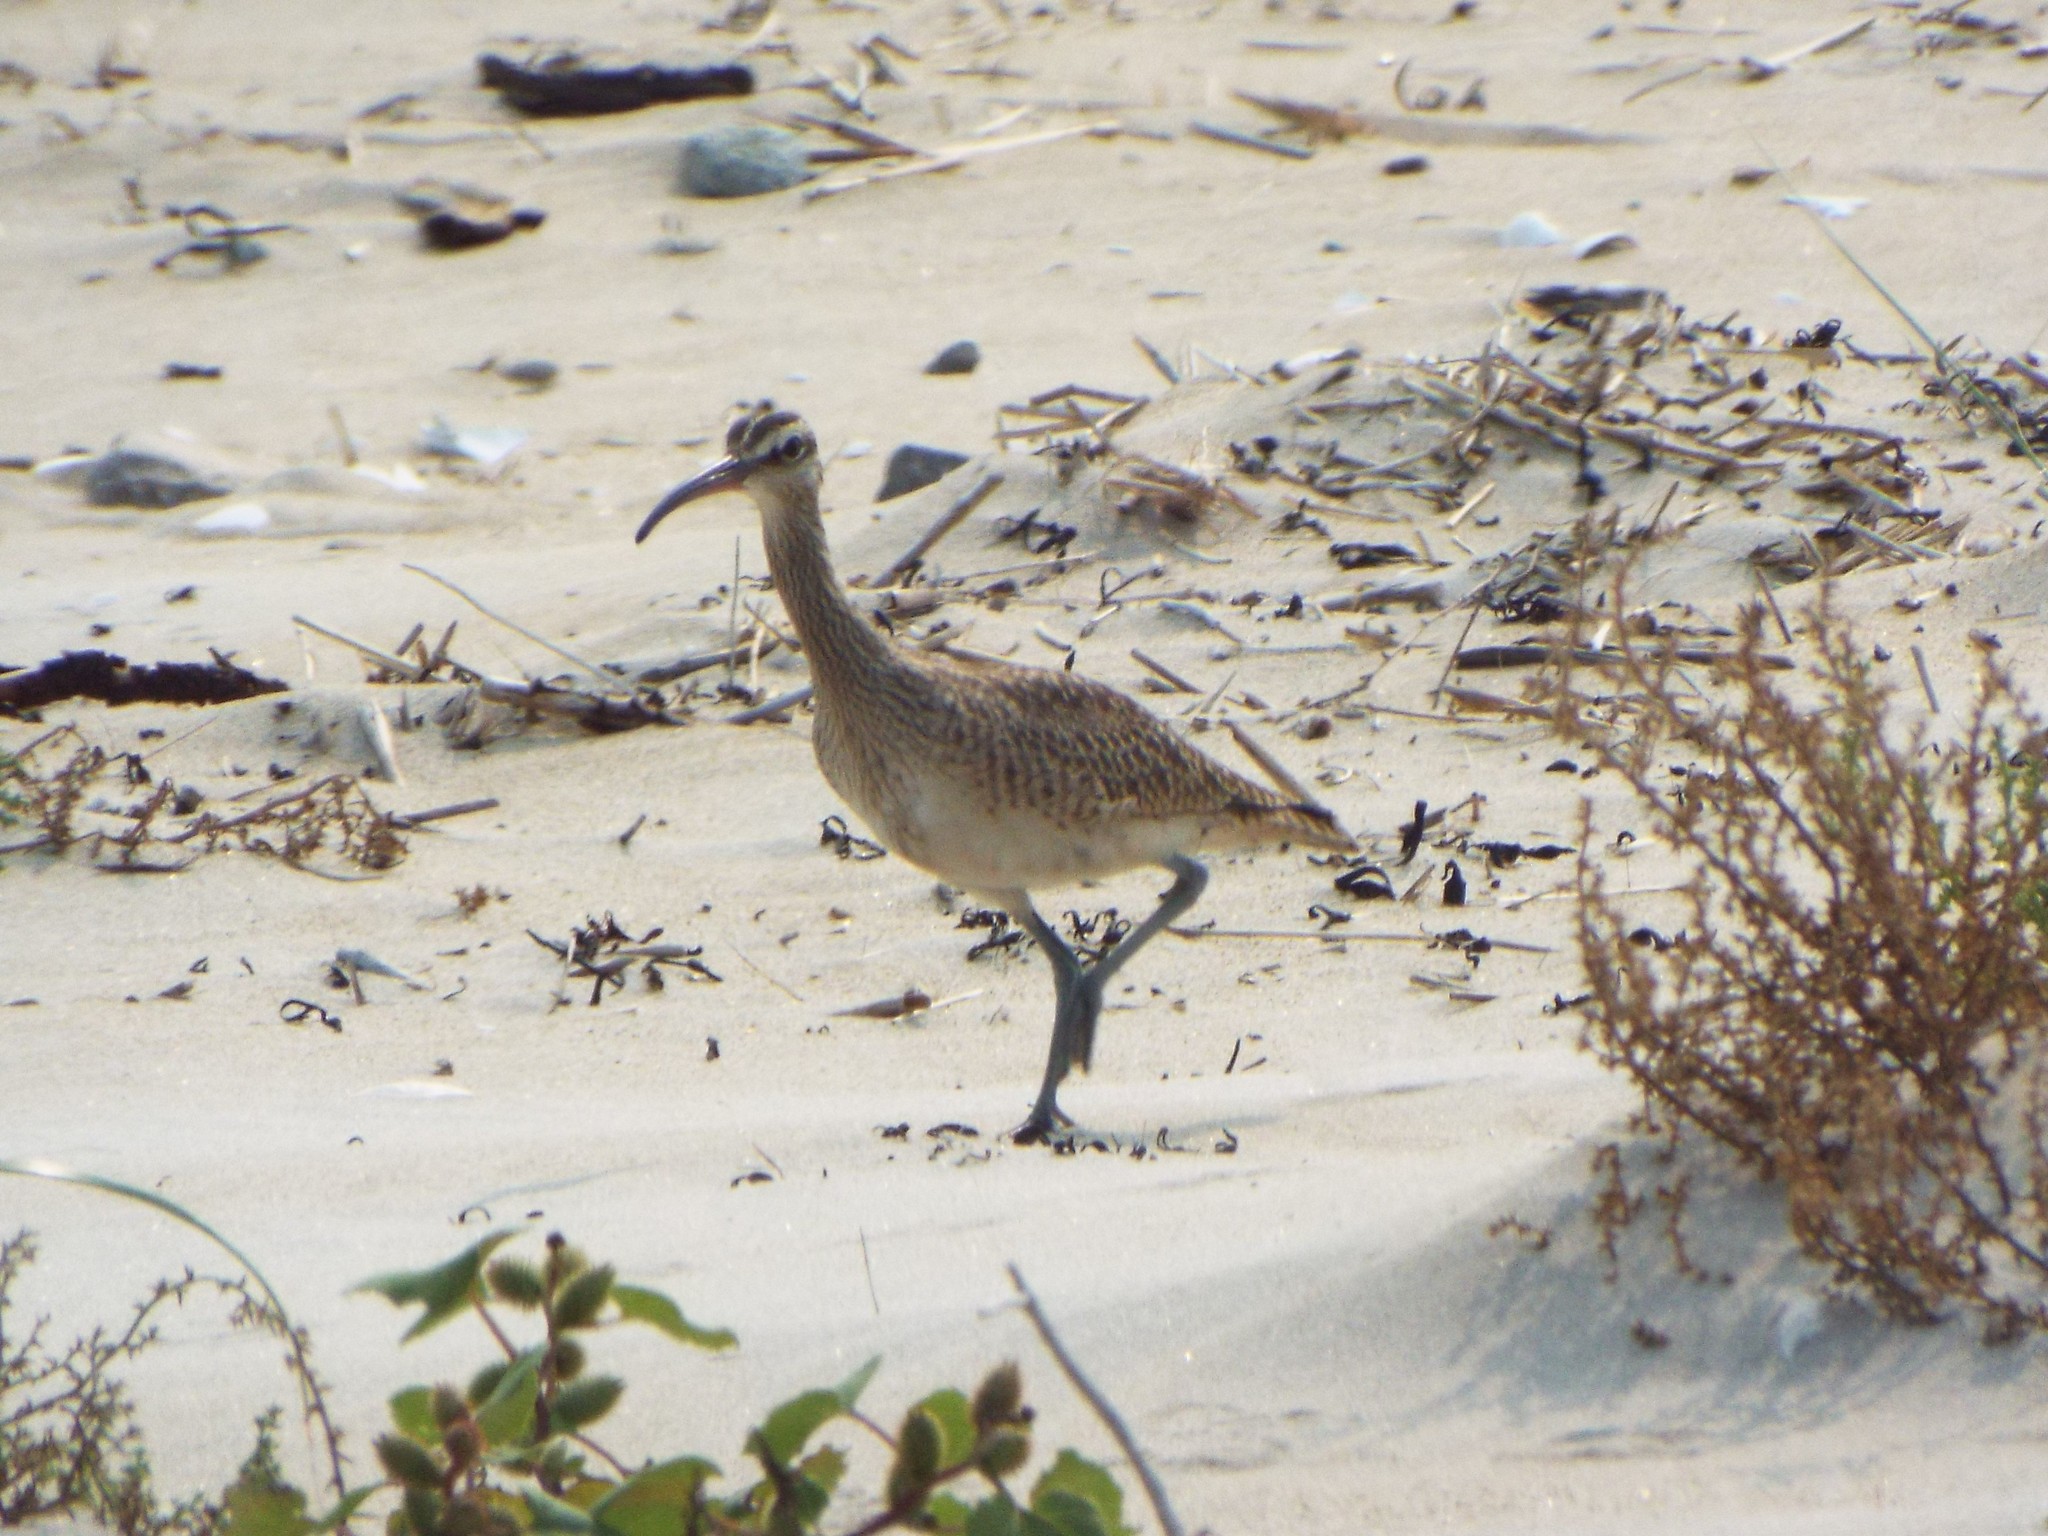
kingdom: Animalia
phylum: Chordata
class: Aves
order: Charadriiformes
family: Scolopacidae
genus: Numenius
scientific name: Numenius phaeopus
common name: Whimbrel
